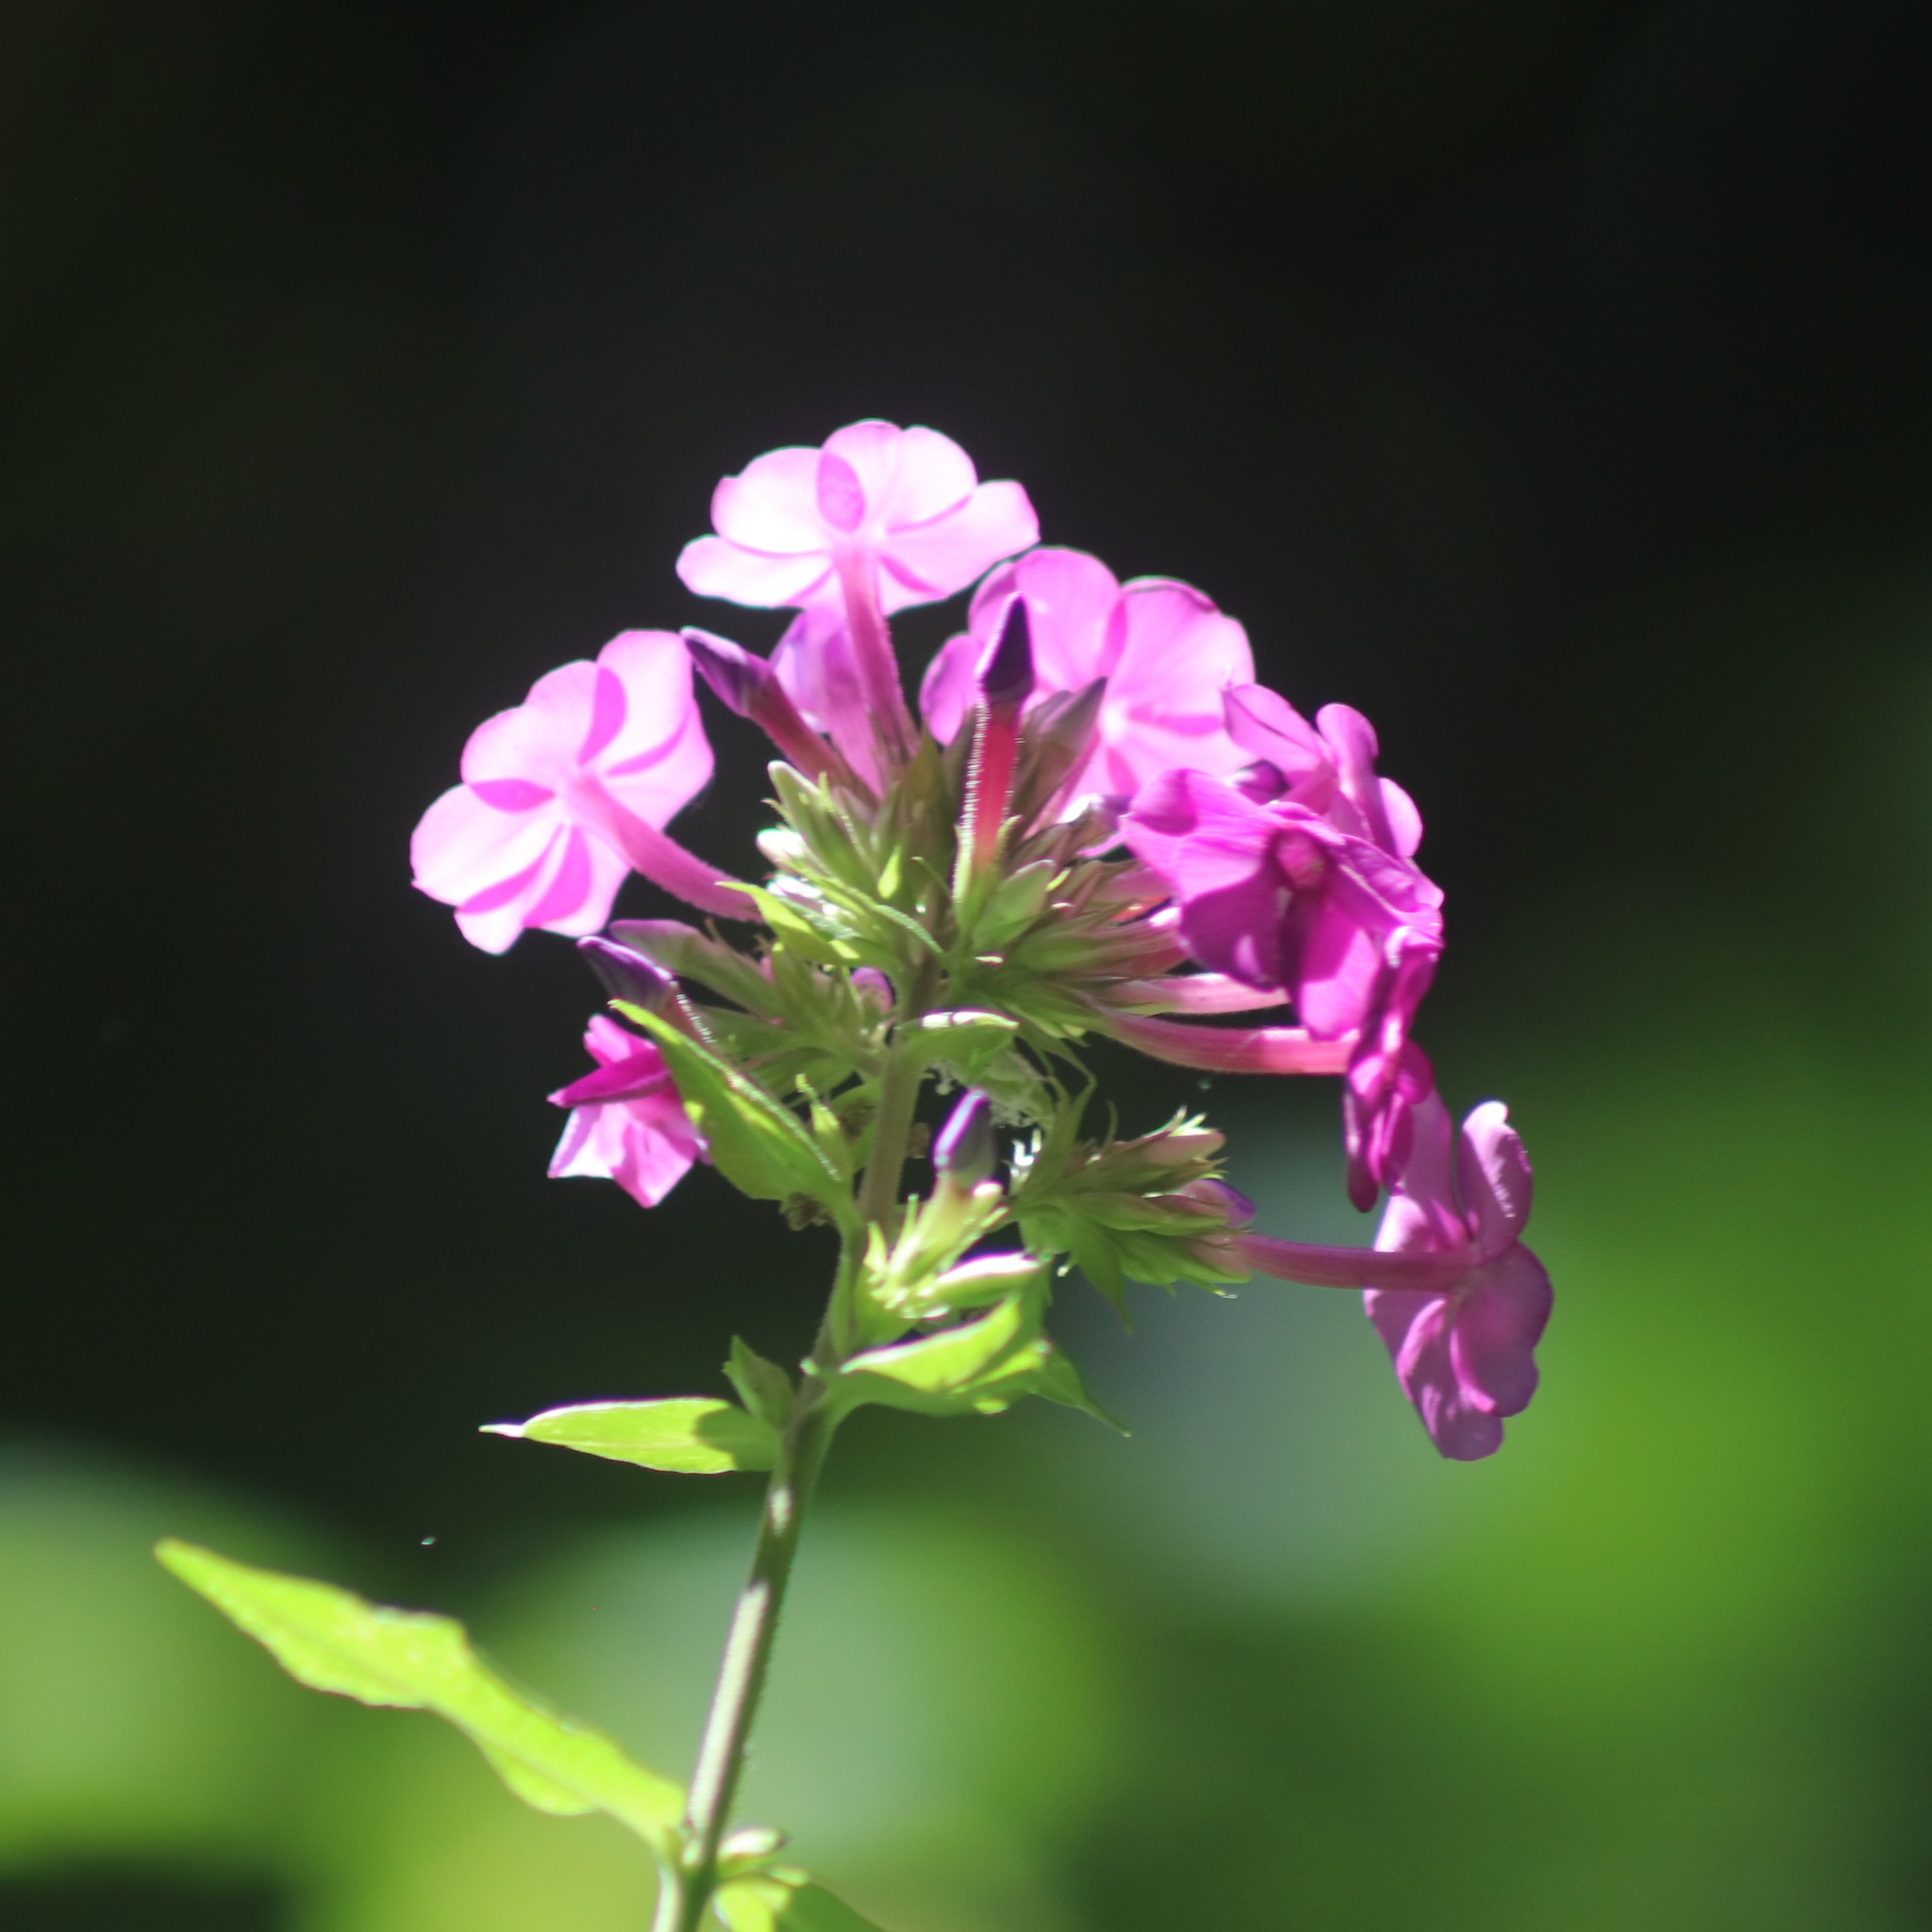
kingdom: Plantae
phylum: Tracheophyta
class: Magnoliopsida
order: Ericales
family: Polemoniaceae
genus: Phlox
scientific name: Phlox paniculata
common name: Fall phlox
